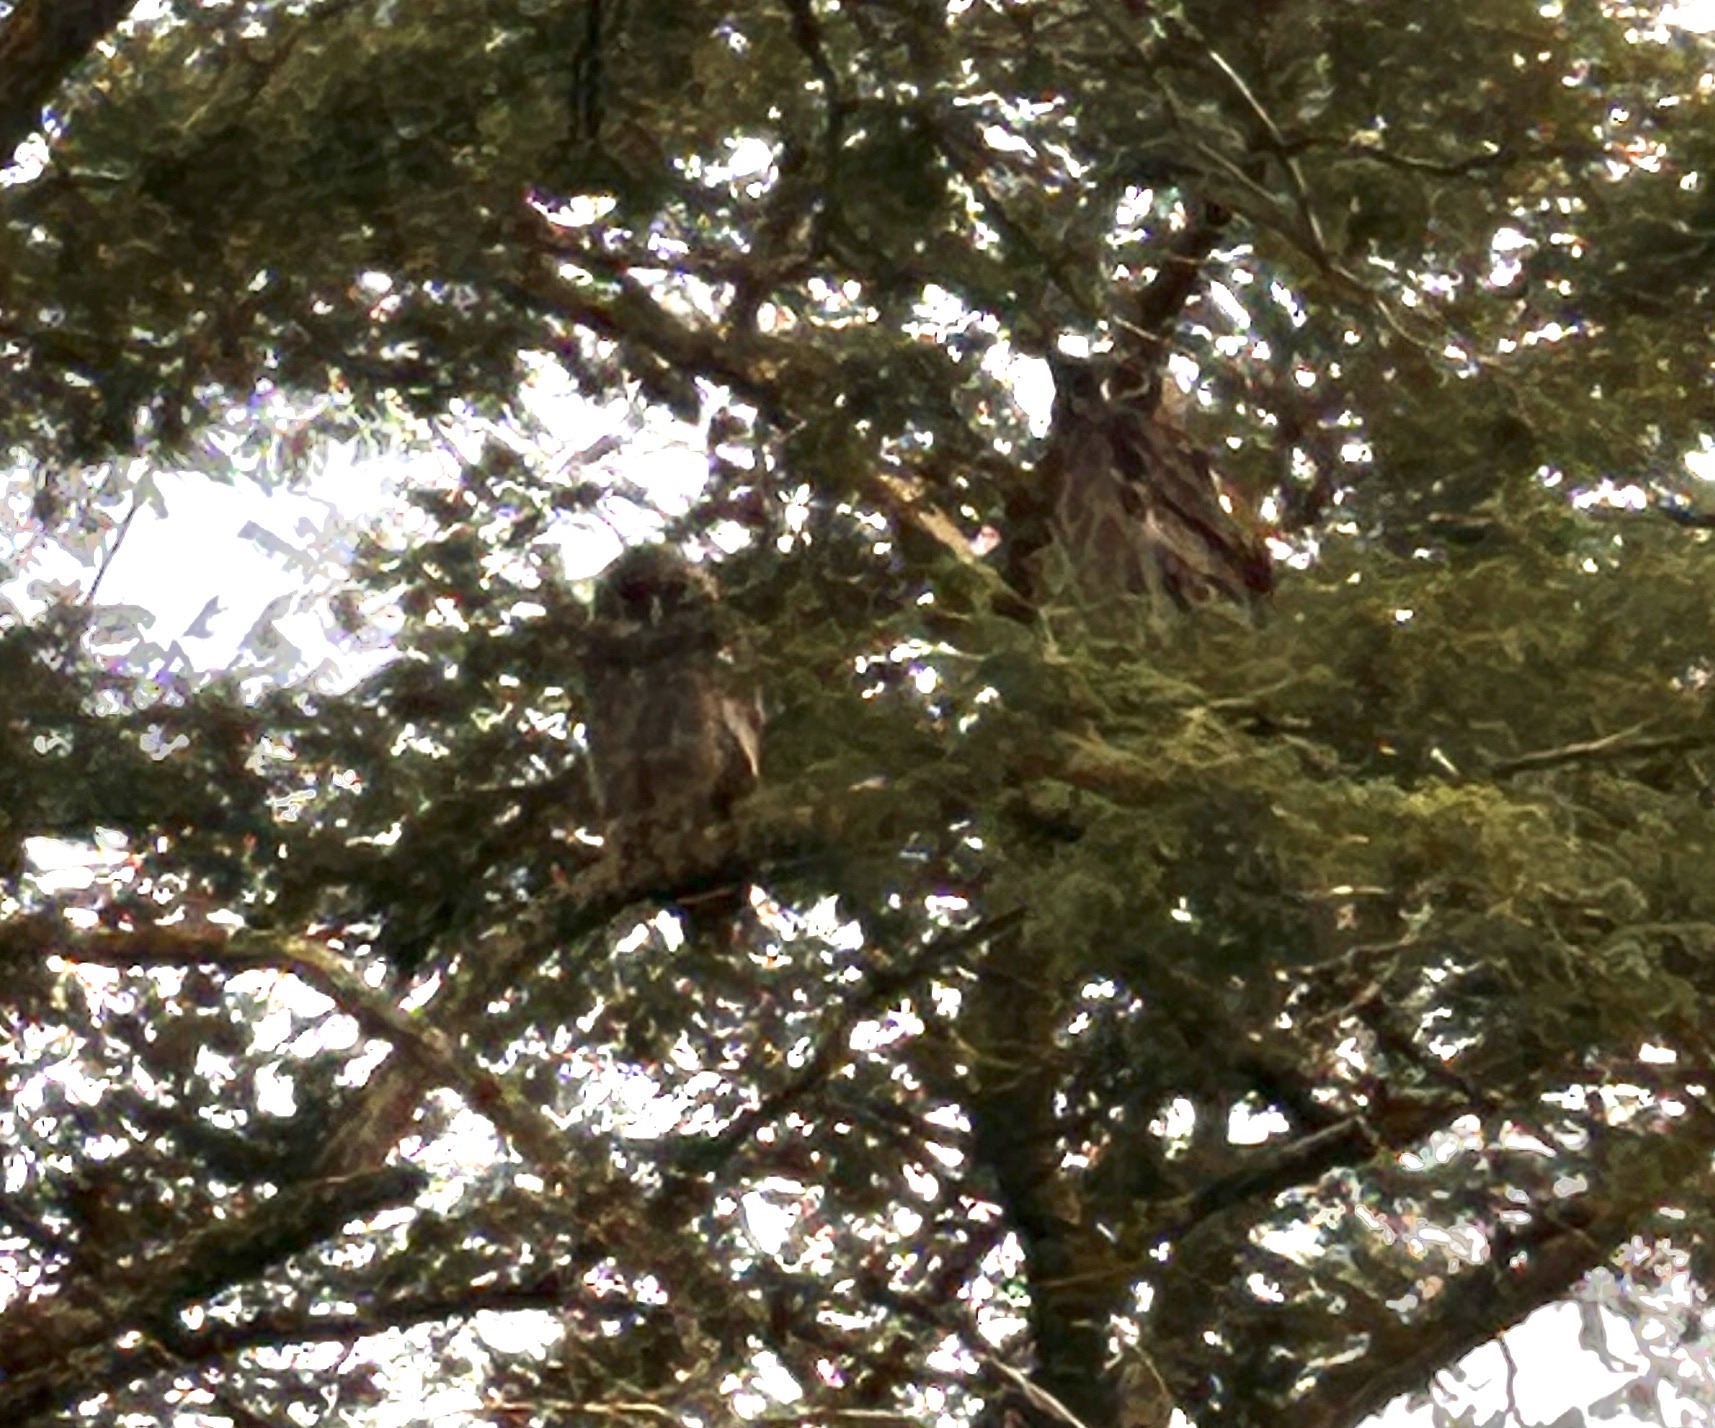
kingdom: Animalia
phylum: Chordata
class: Aves
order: Strigiformes
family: Strigidae
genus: Bubo
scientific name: Bubo lacteus
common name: Verreaux's eagle-owl
